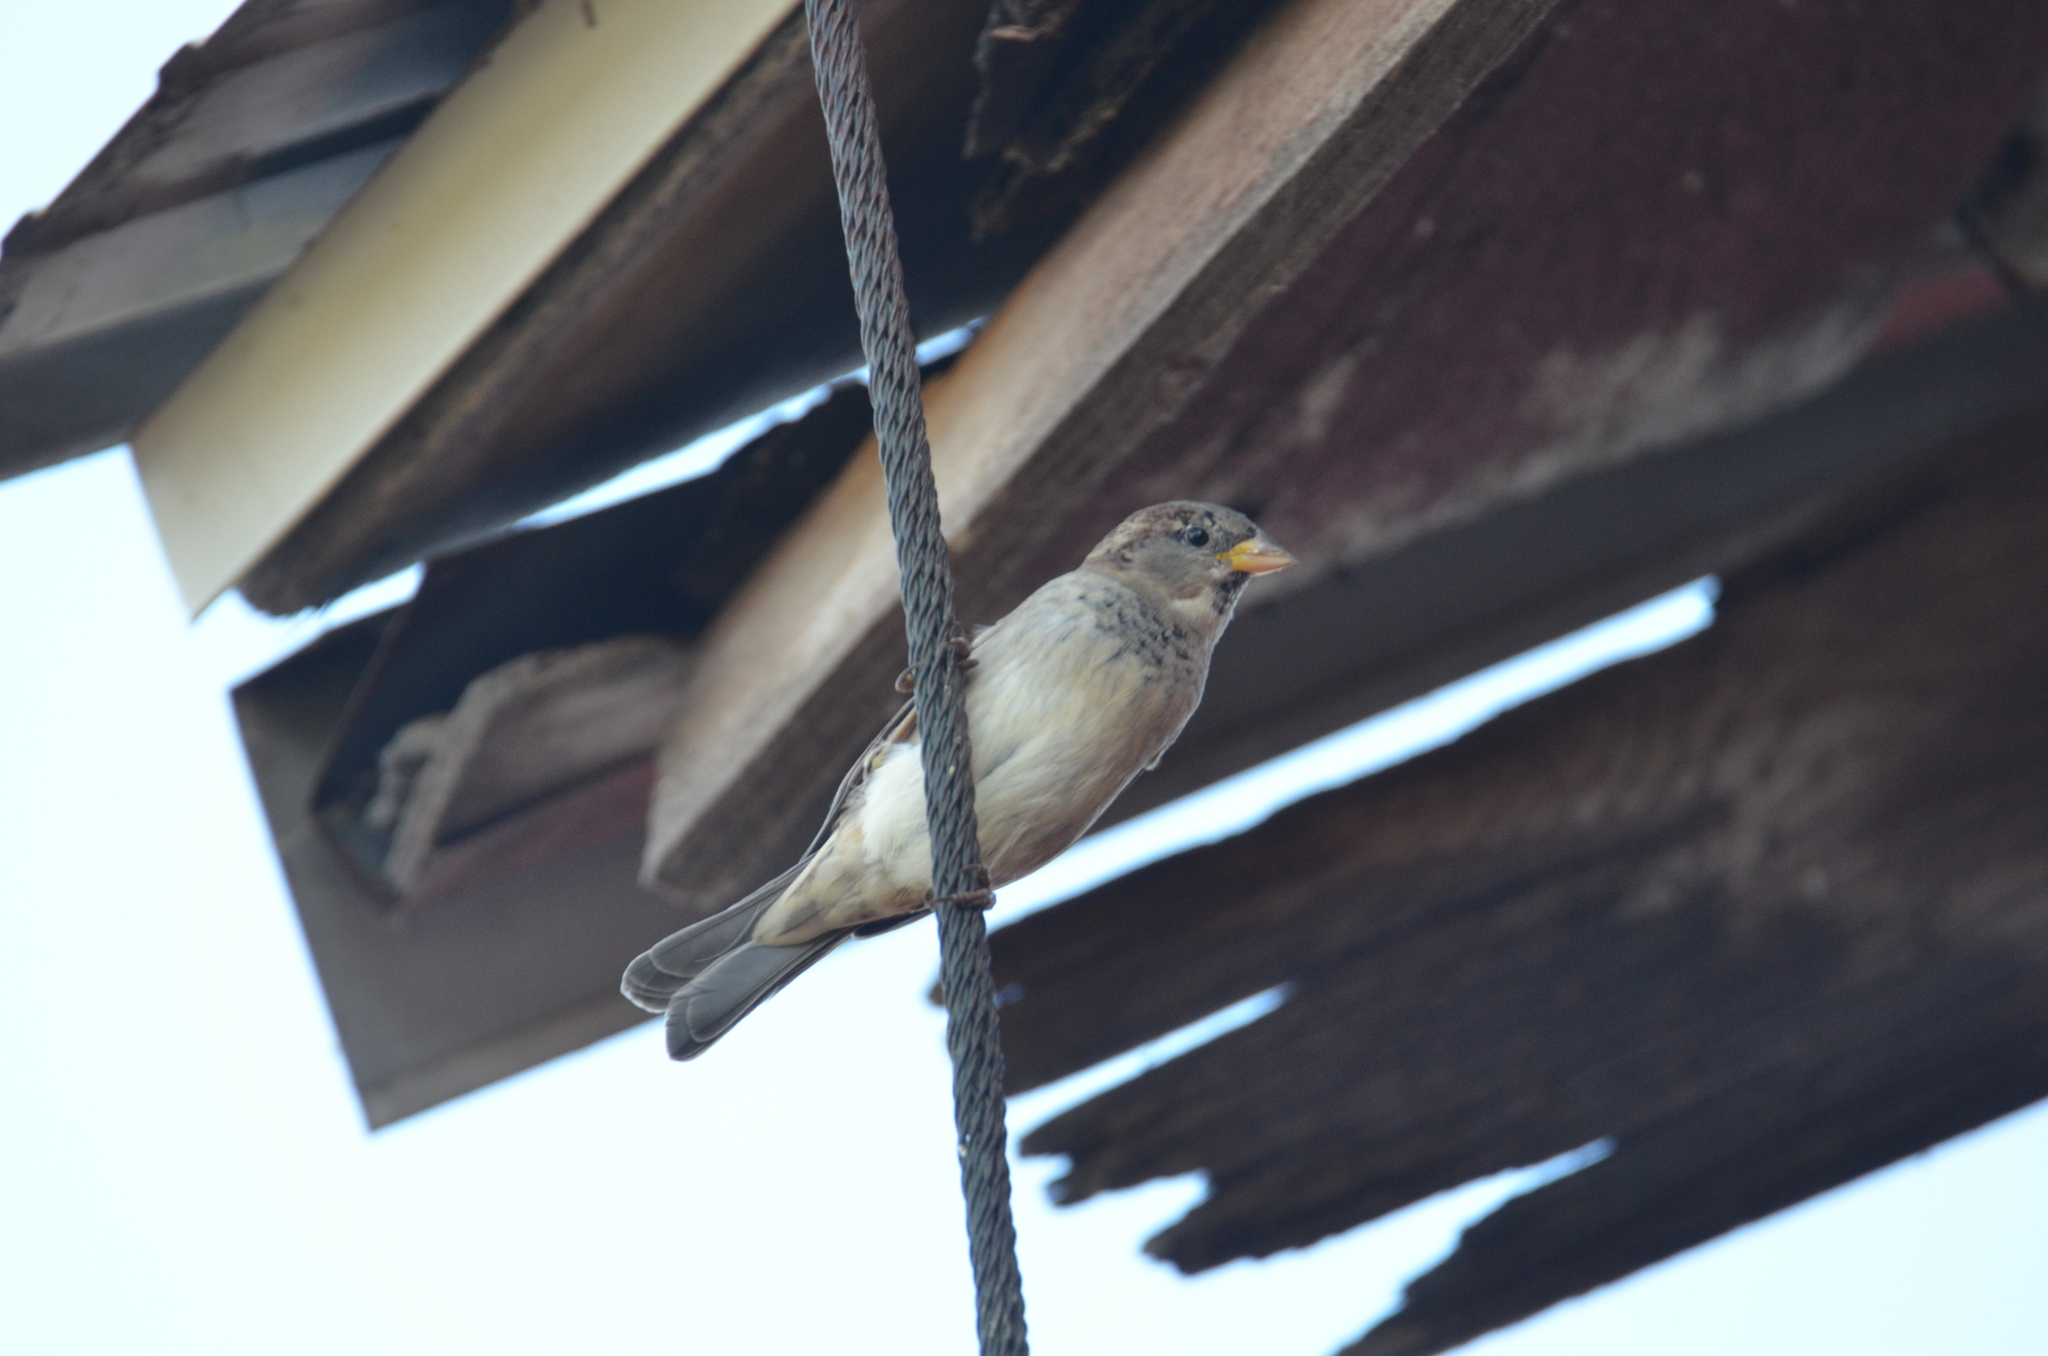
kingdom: Animalia
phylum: Chordata
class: Aves
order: Passeriformes
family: Passeridae
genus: Passer
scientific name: Passer domesticus
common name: House sparrow
